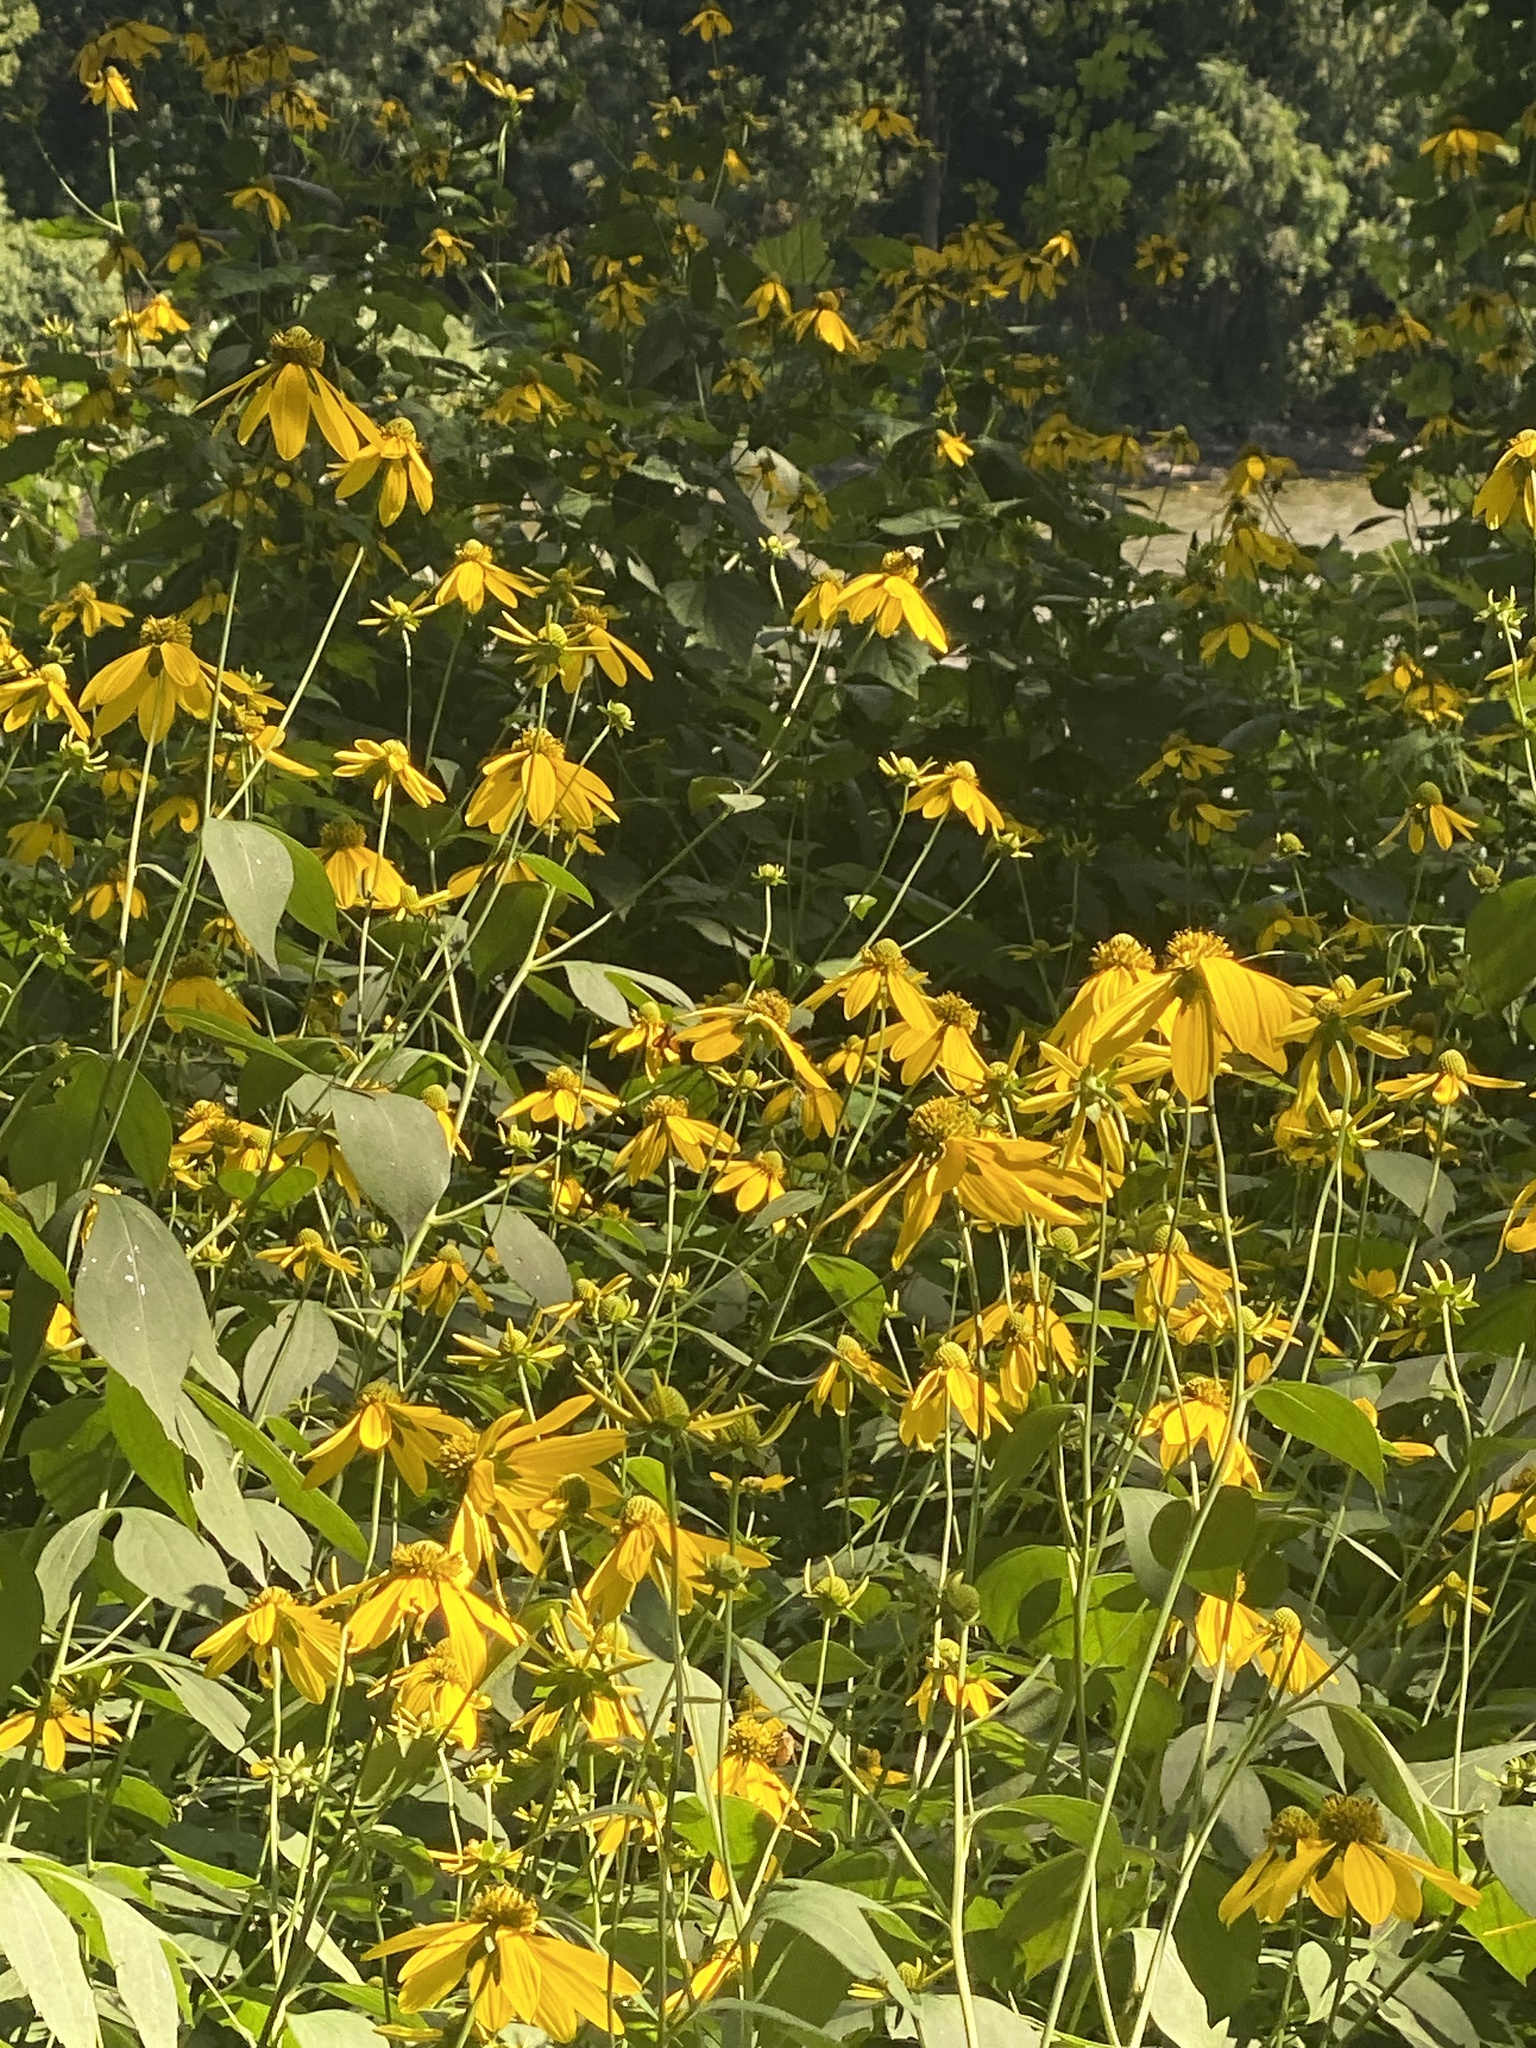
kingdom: Plantae
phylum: Tracheophyta
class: Magnoliopsida
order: Asterales
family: Asteraceae
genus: Rudbeckia
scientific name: Rudbeckia laciniata
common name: Coneflower
